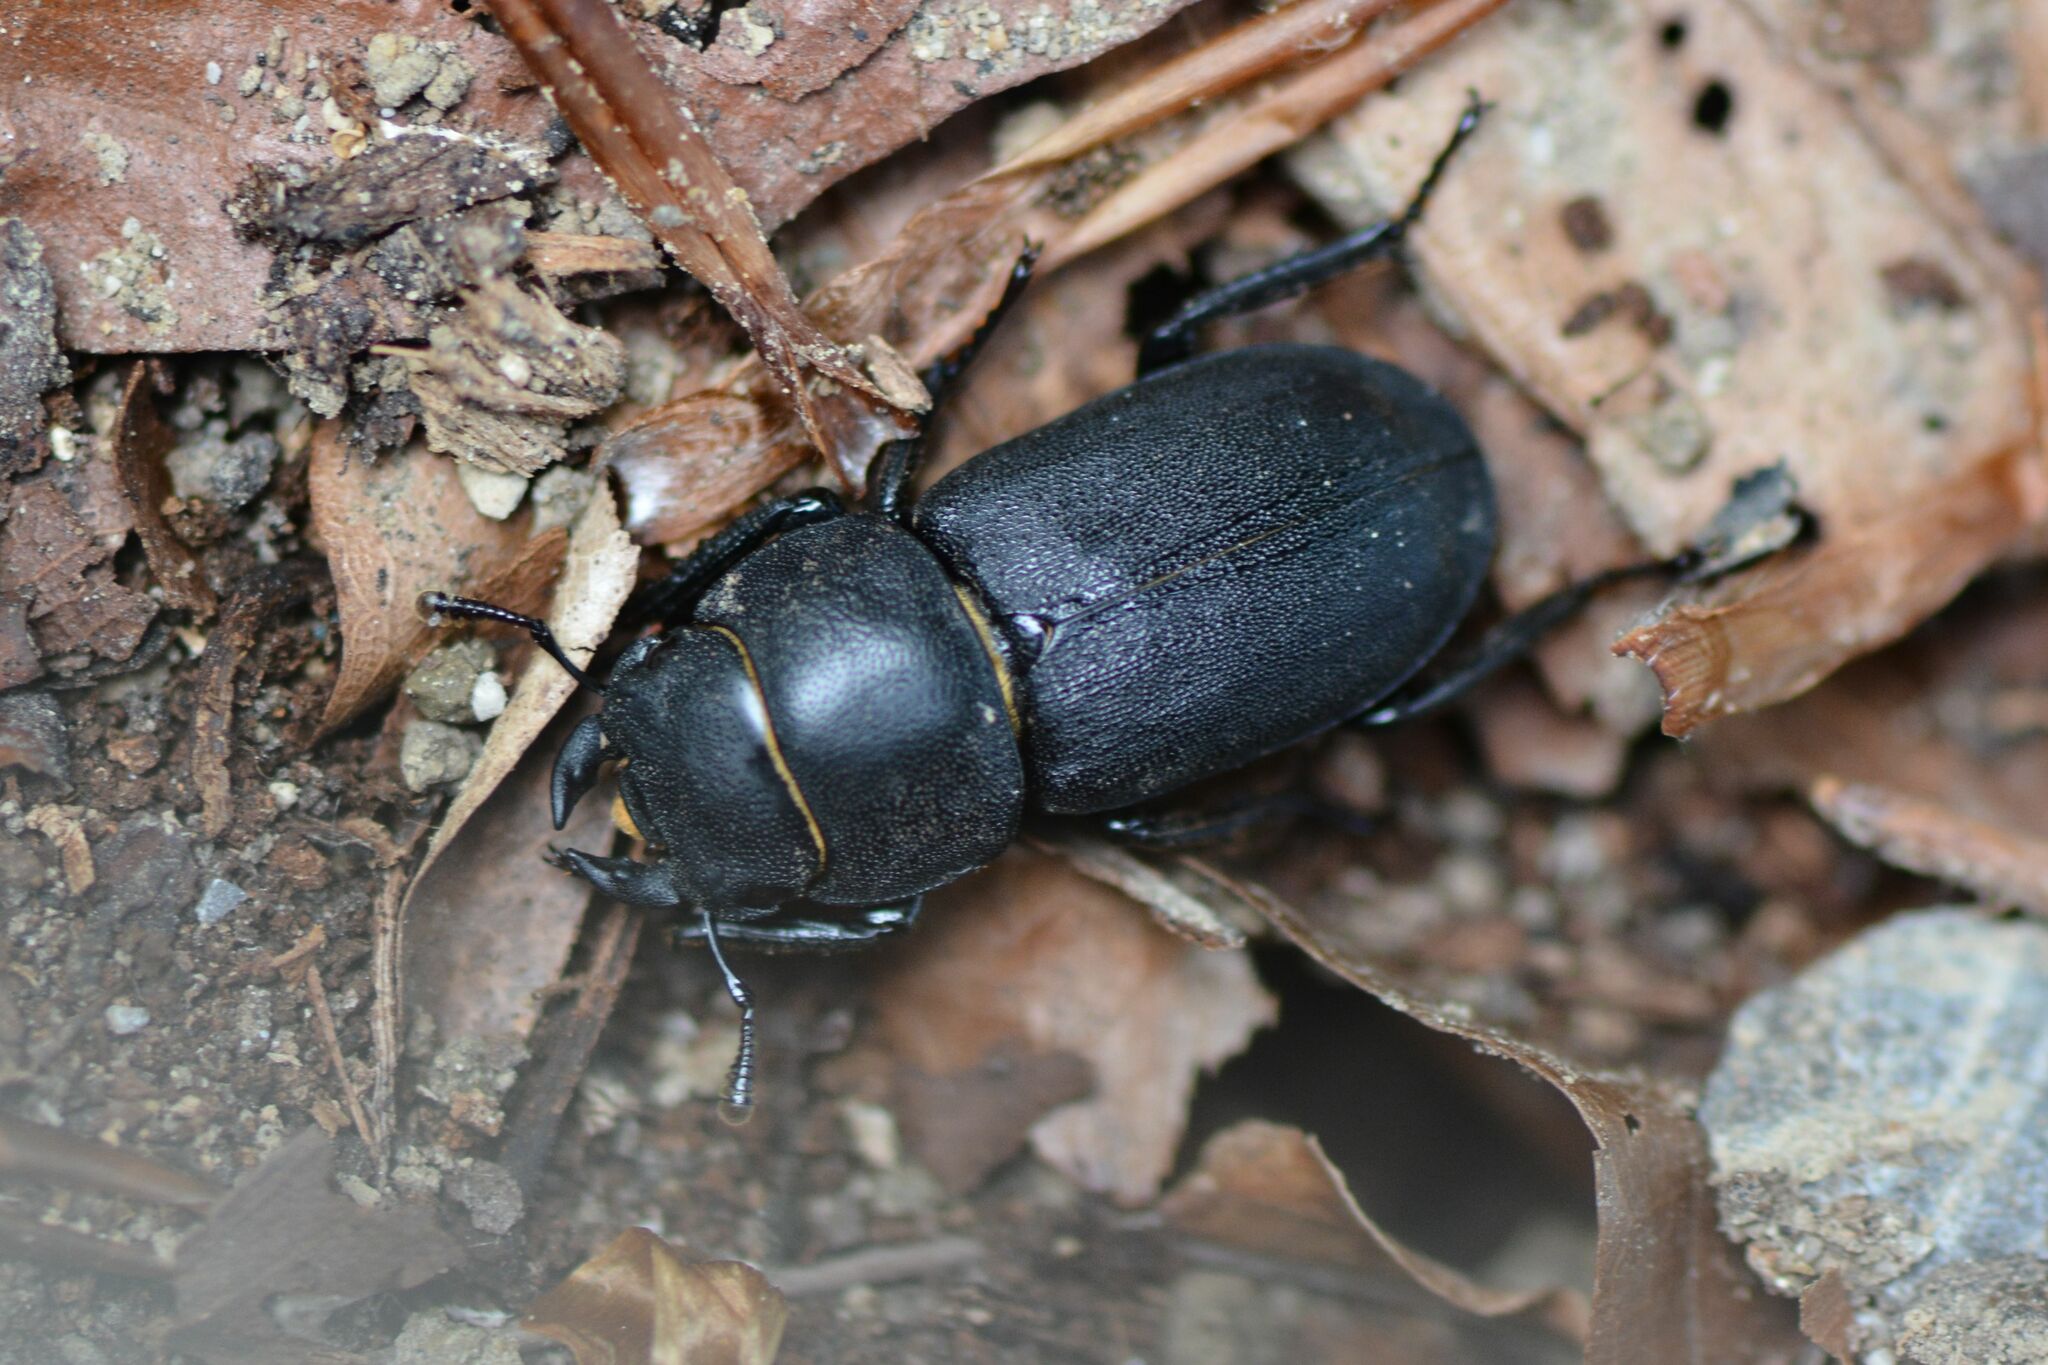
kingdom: Animalia
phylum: Arthropoda
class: Insecta
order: Coleoptera
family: Lucanidae
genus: Dorcus
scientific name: Dorcus parallelipipedus
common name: Lesser stag beetle
